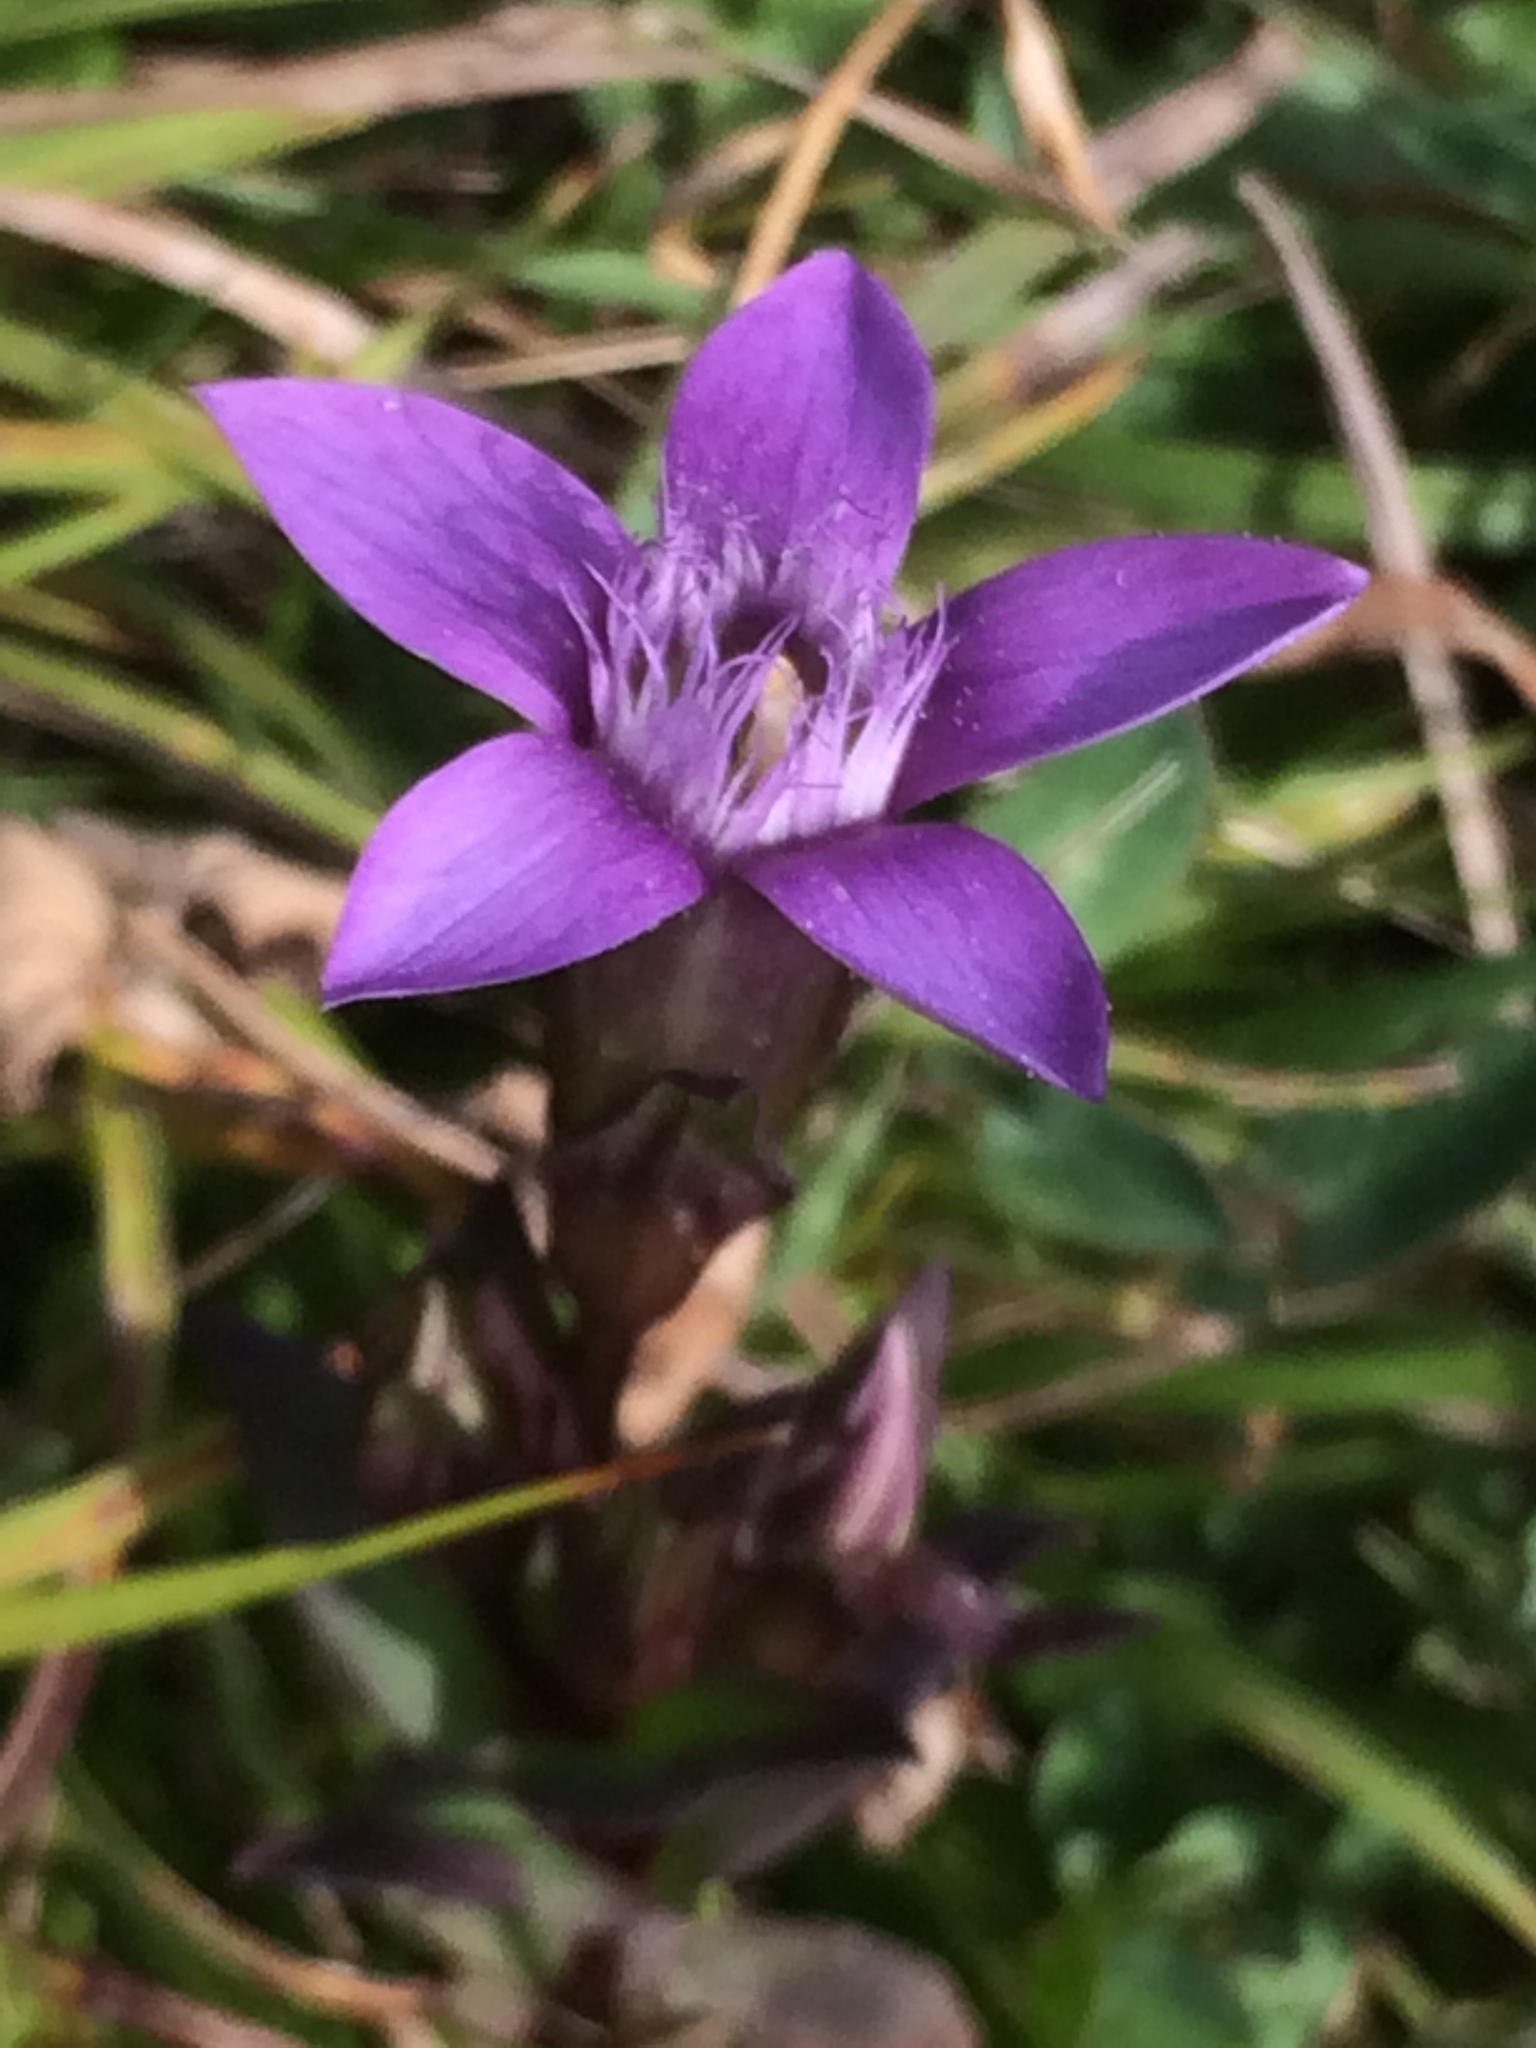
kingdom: Plantae
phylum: Tracheophyta
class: Magnoliopsida
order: Gentianales
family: Gentianaceae
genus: Gentianella
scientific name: Gentianella germanica
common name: Chiltern-gentian
